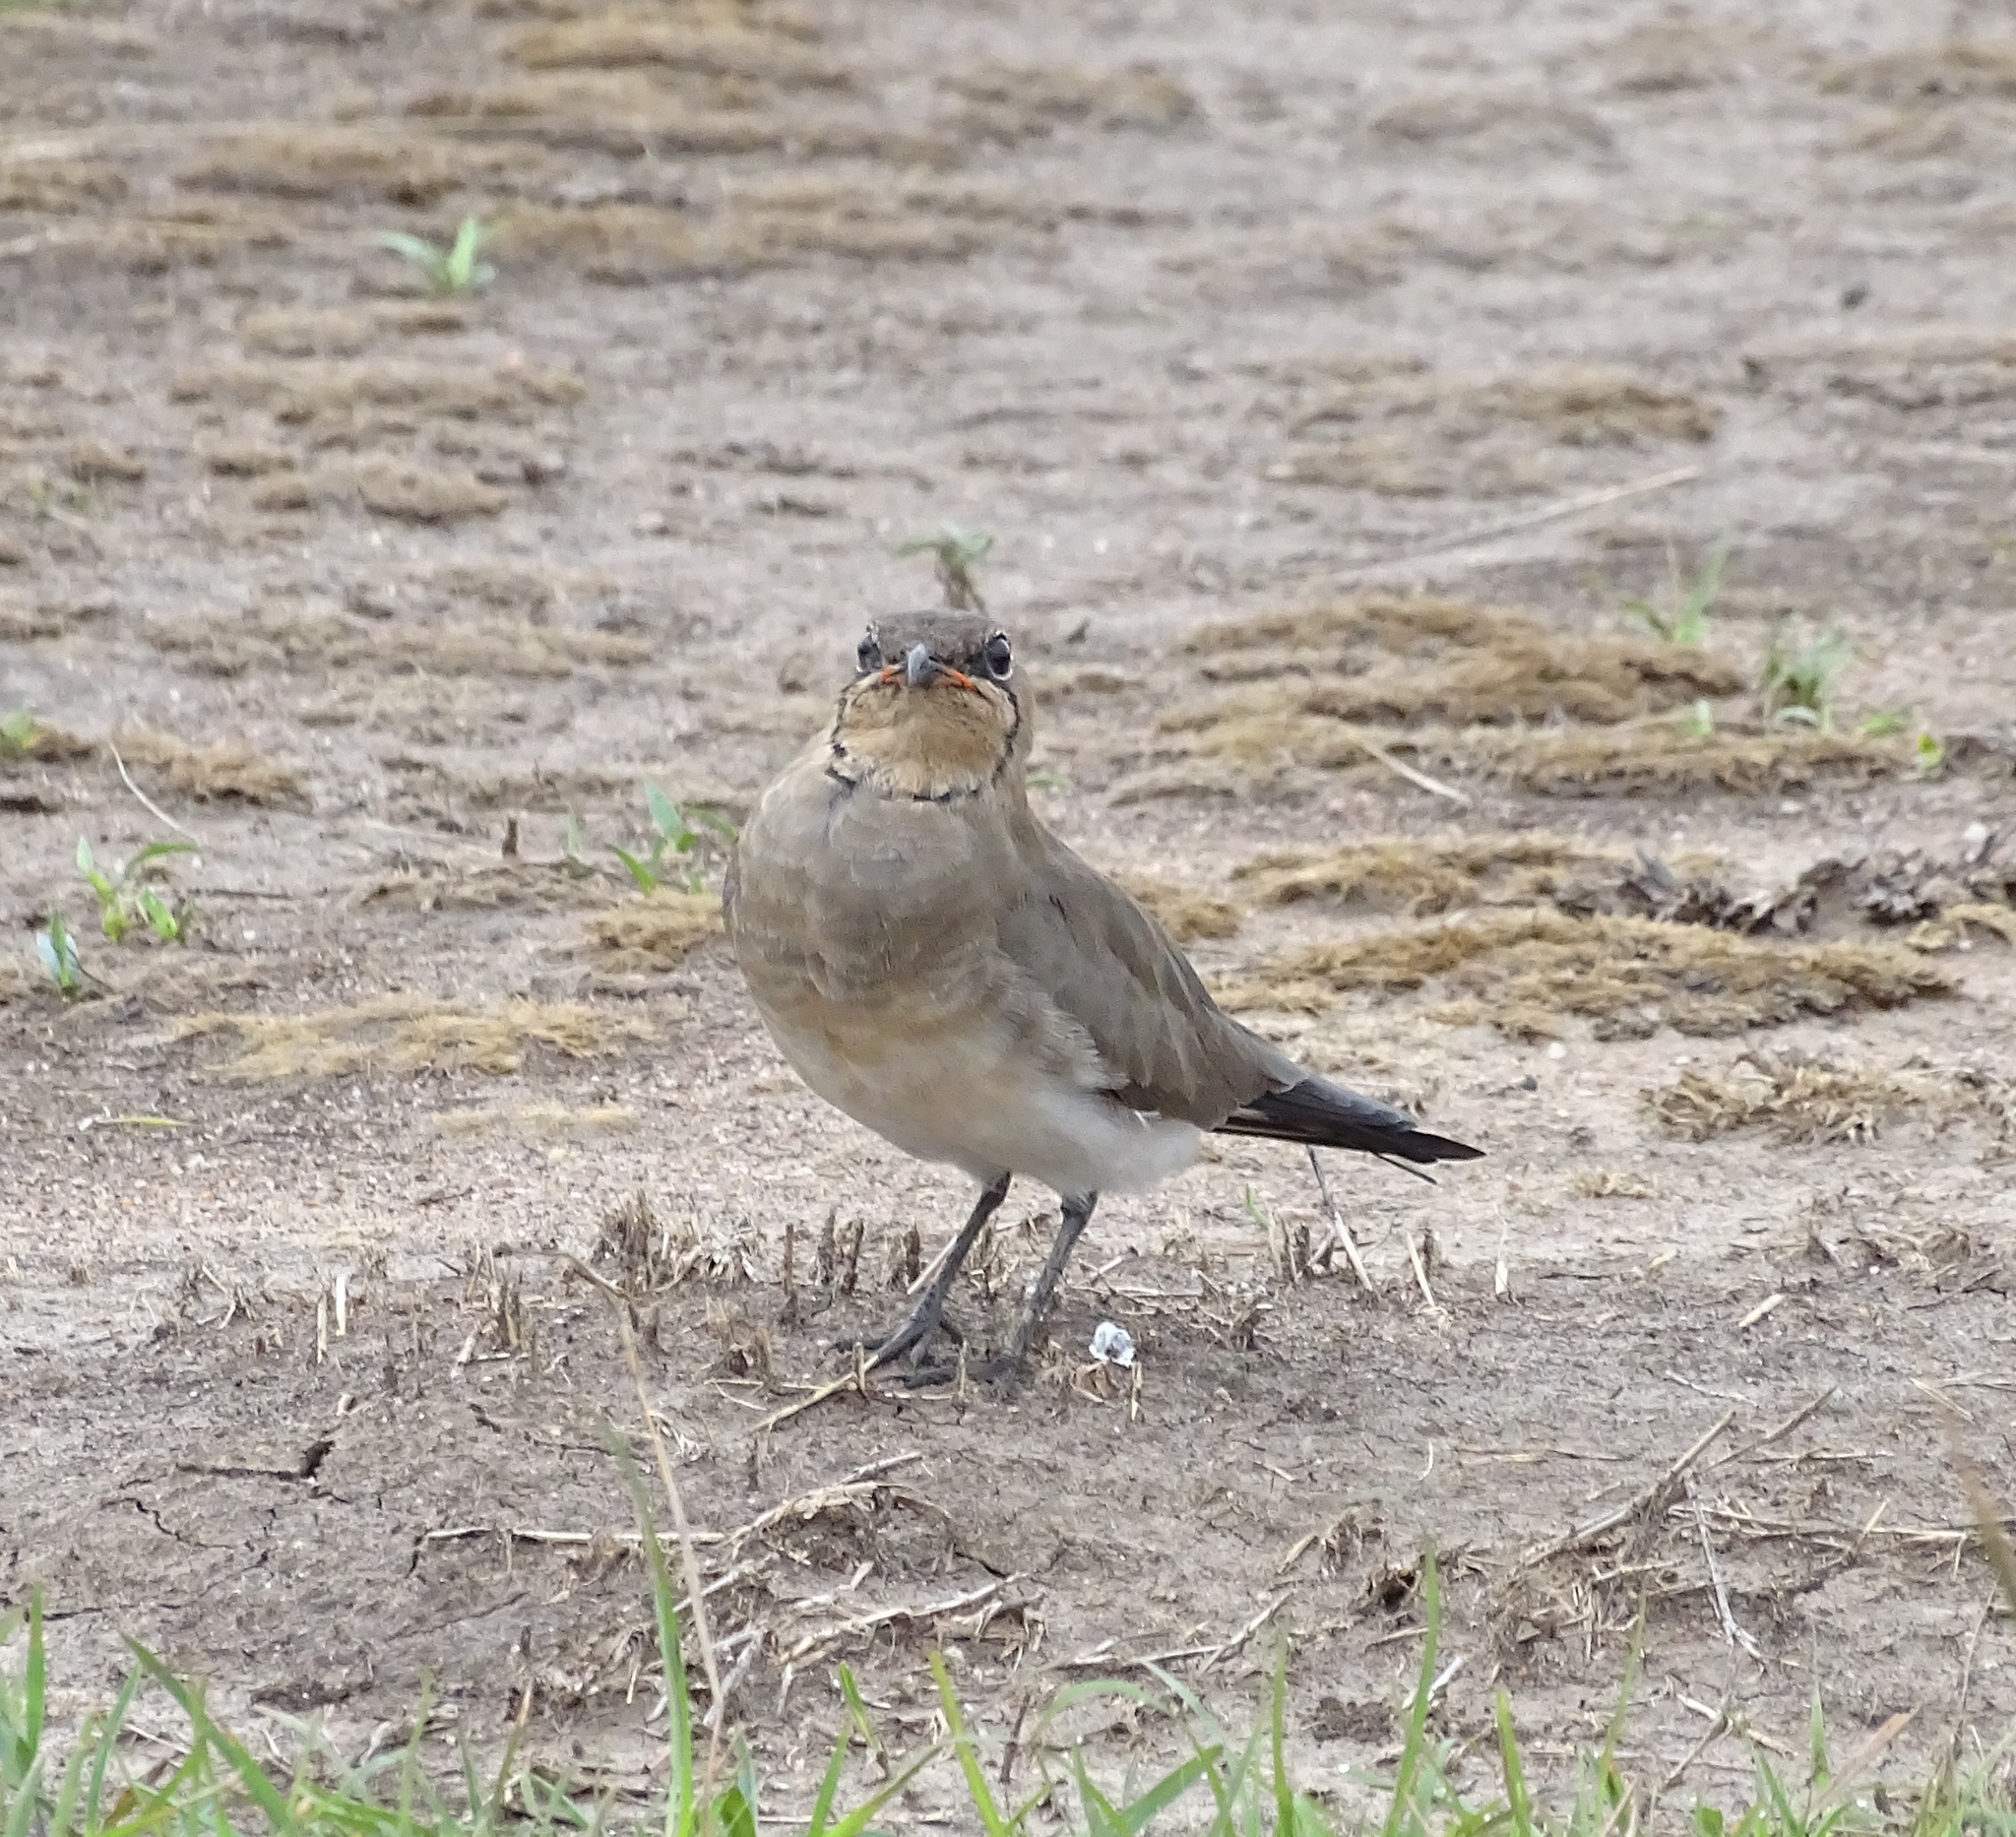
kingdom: Animalia
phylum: Chordata
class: Aves
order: Charadriiformes
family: Glareolidae
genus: Glareola
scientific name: Glareola pratincola
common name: Collared pratincole
